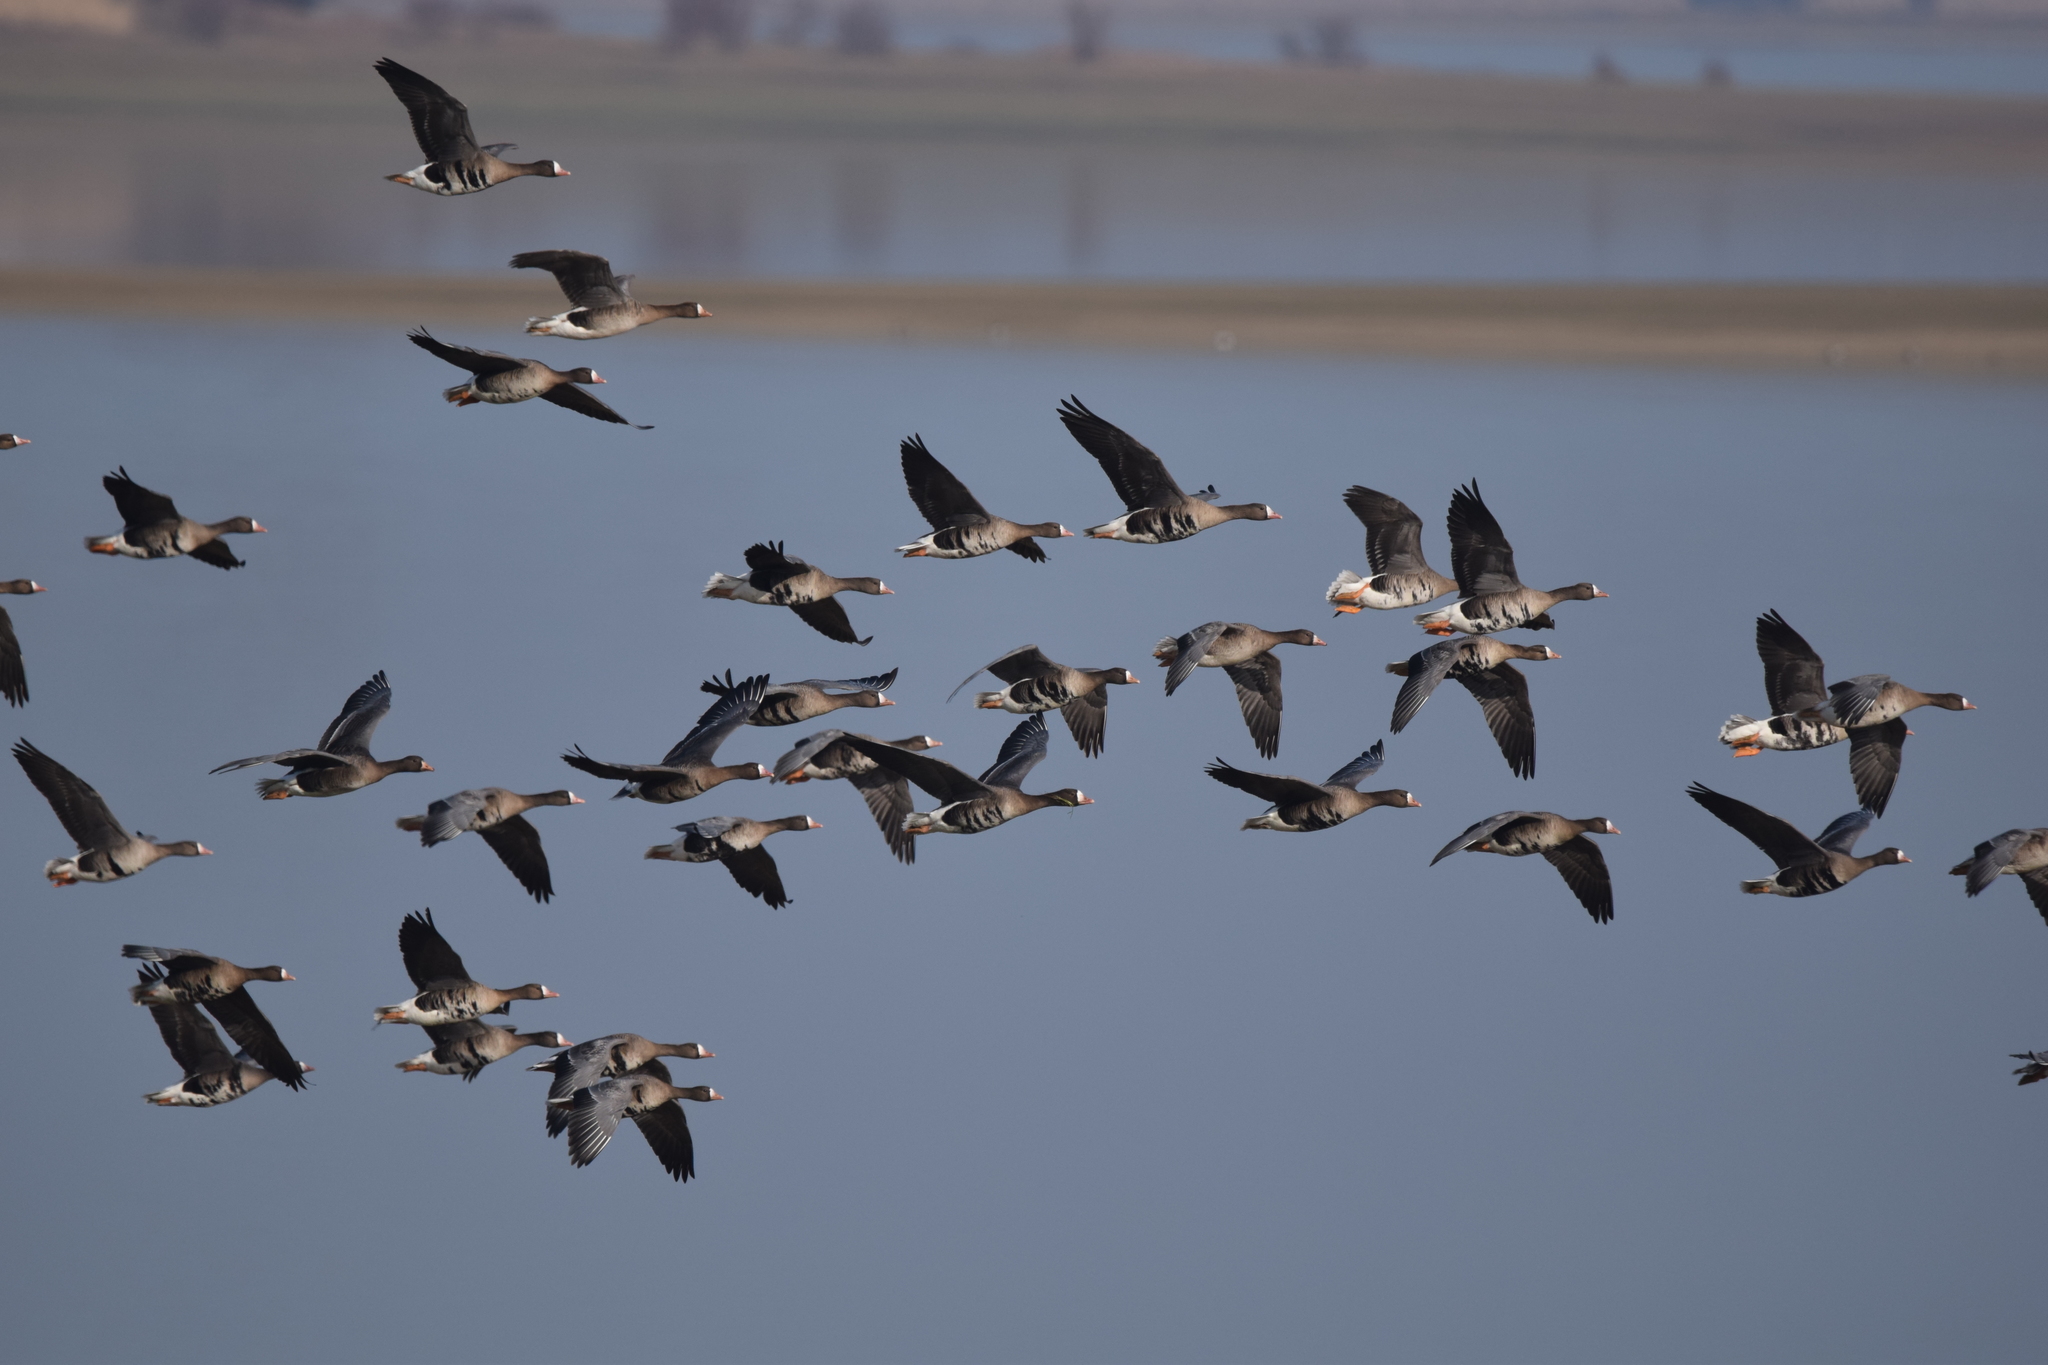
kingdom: Animalia
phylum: Chordata
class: Aves
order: Anseriformes
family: Anatidae
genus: Anser
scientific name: Anser albifrons
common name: Greater white-fronted goose
